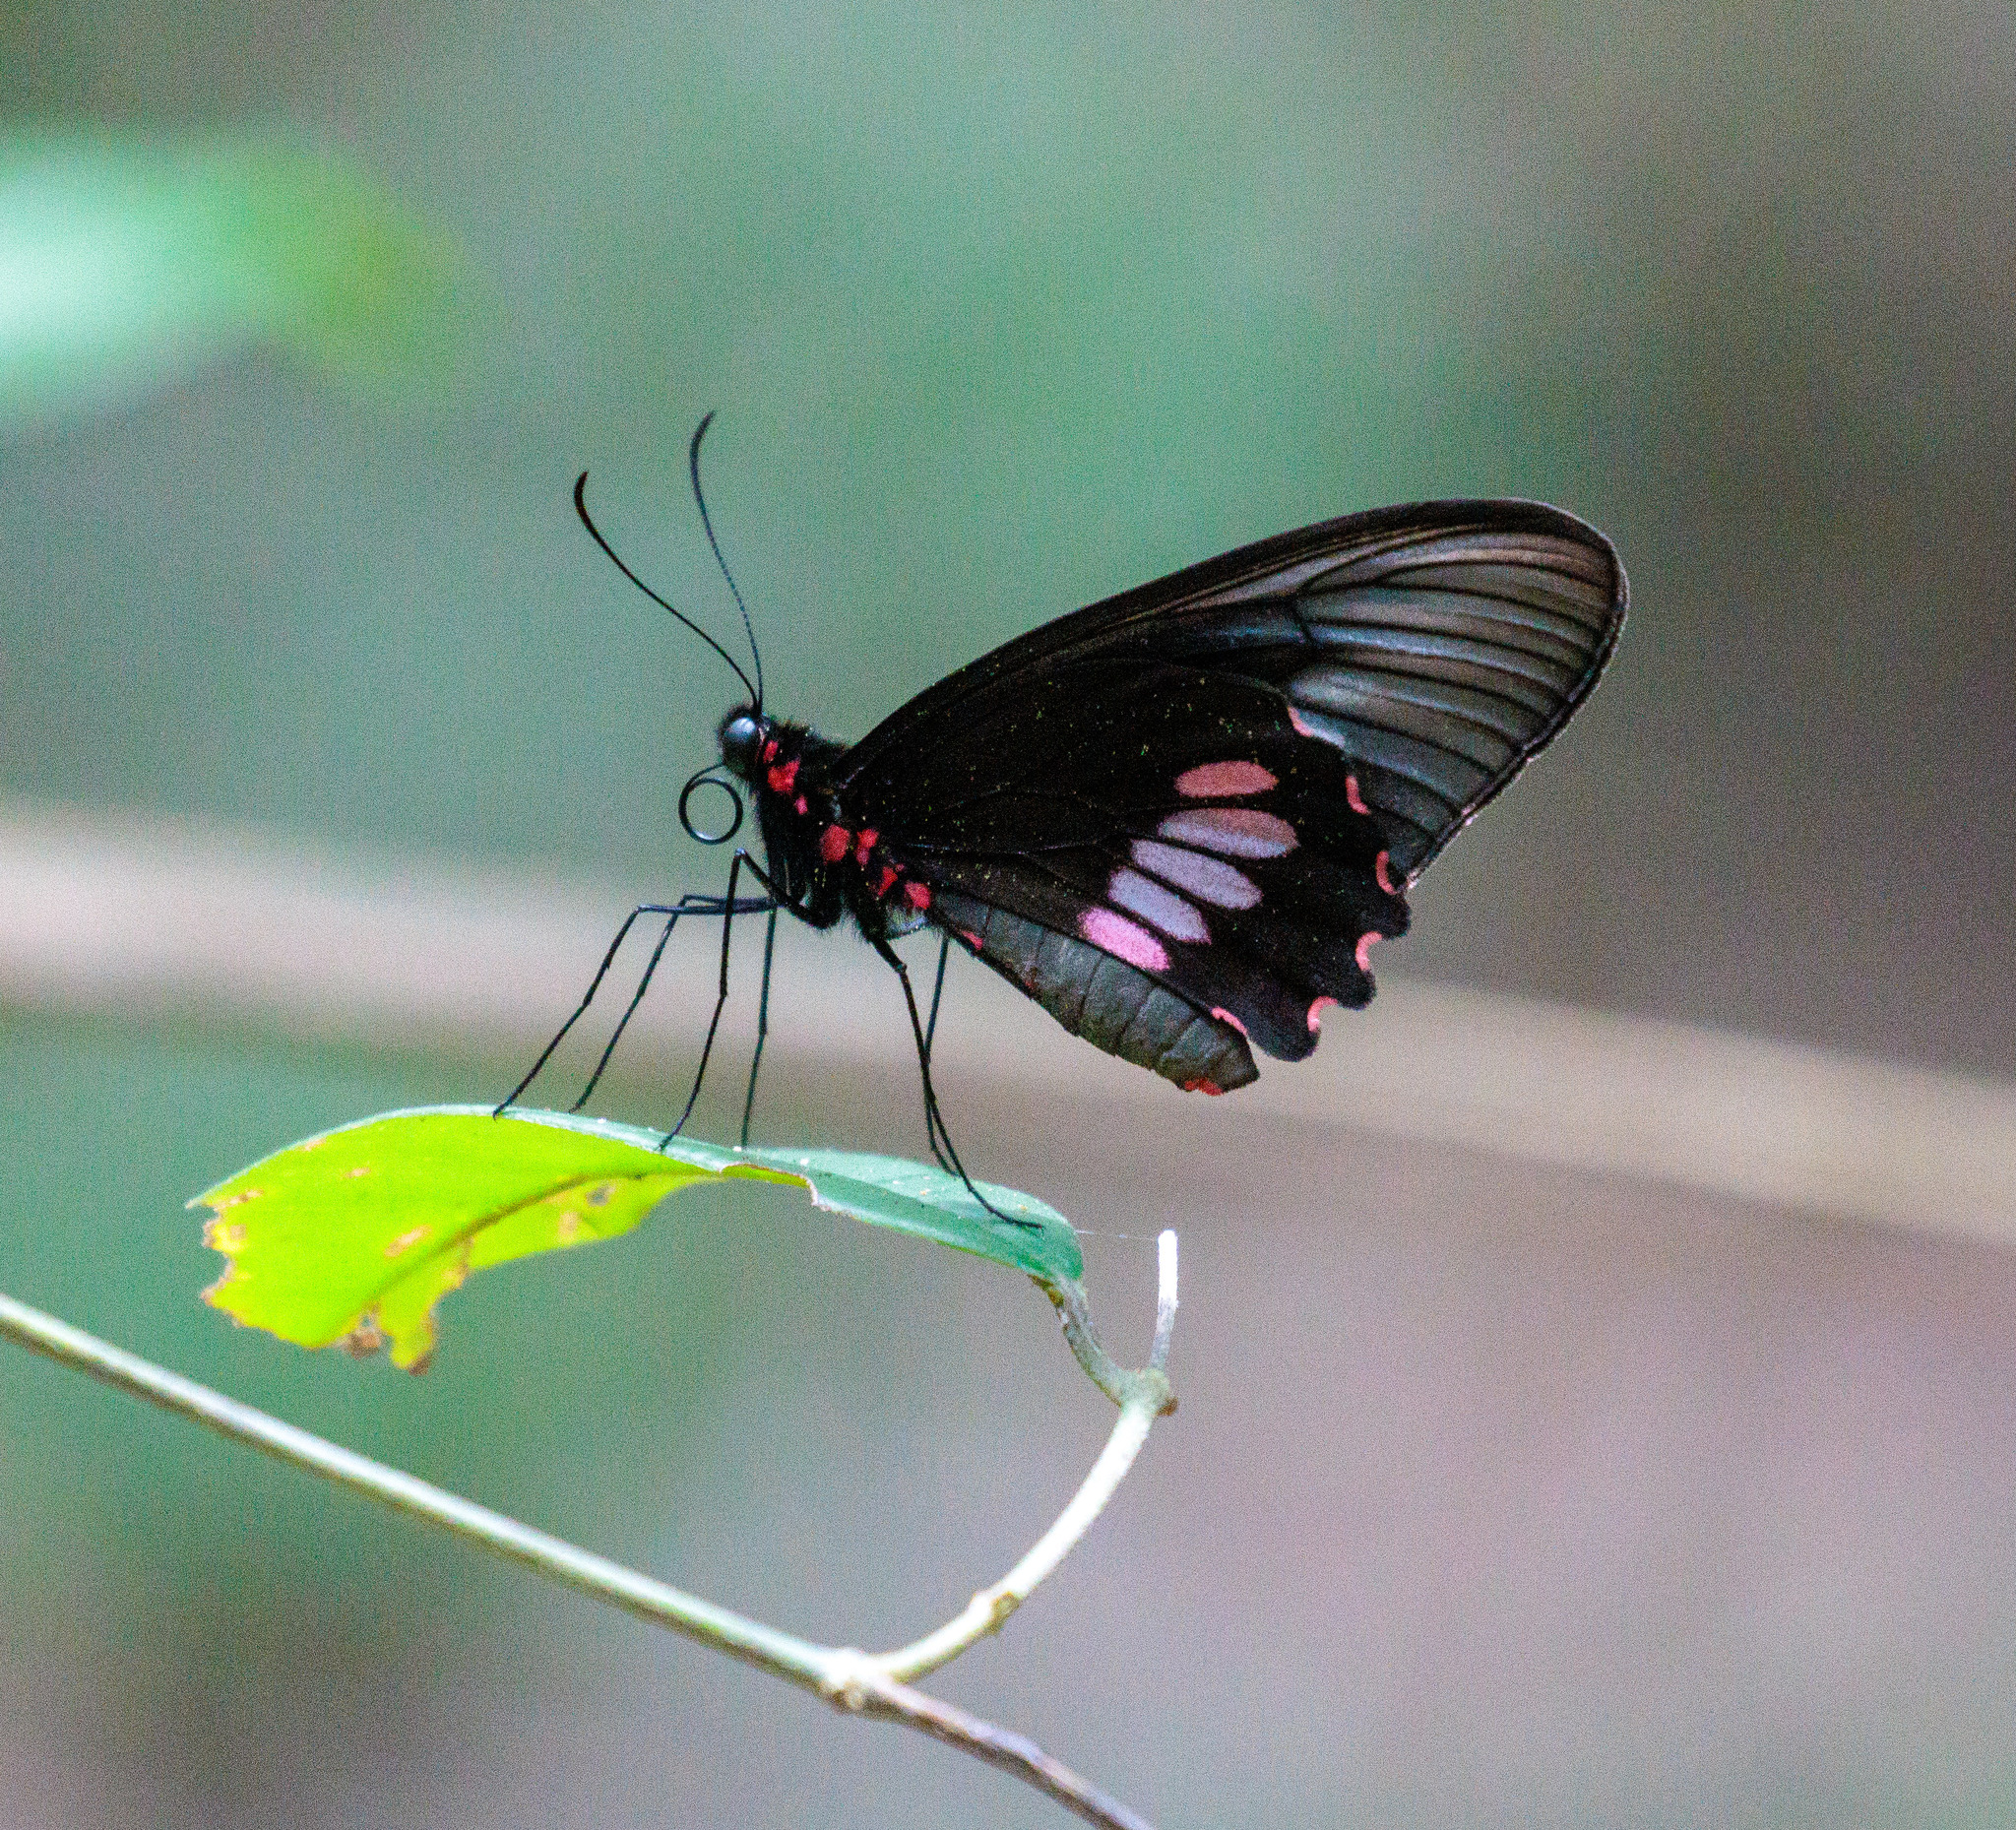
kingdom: Animalia
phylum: Arthropoda
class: Insecta
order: Lepidoptera
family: Papilionidae
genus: Parides
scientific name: Parides zacynthus
